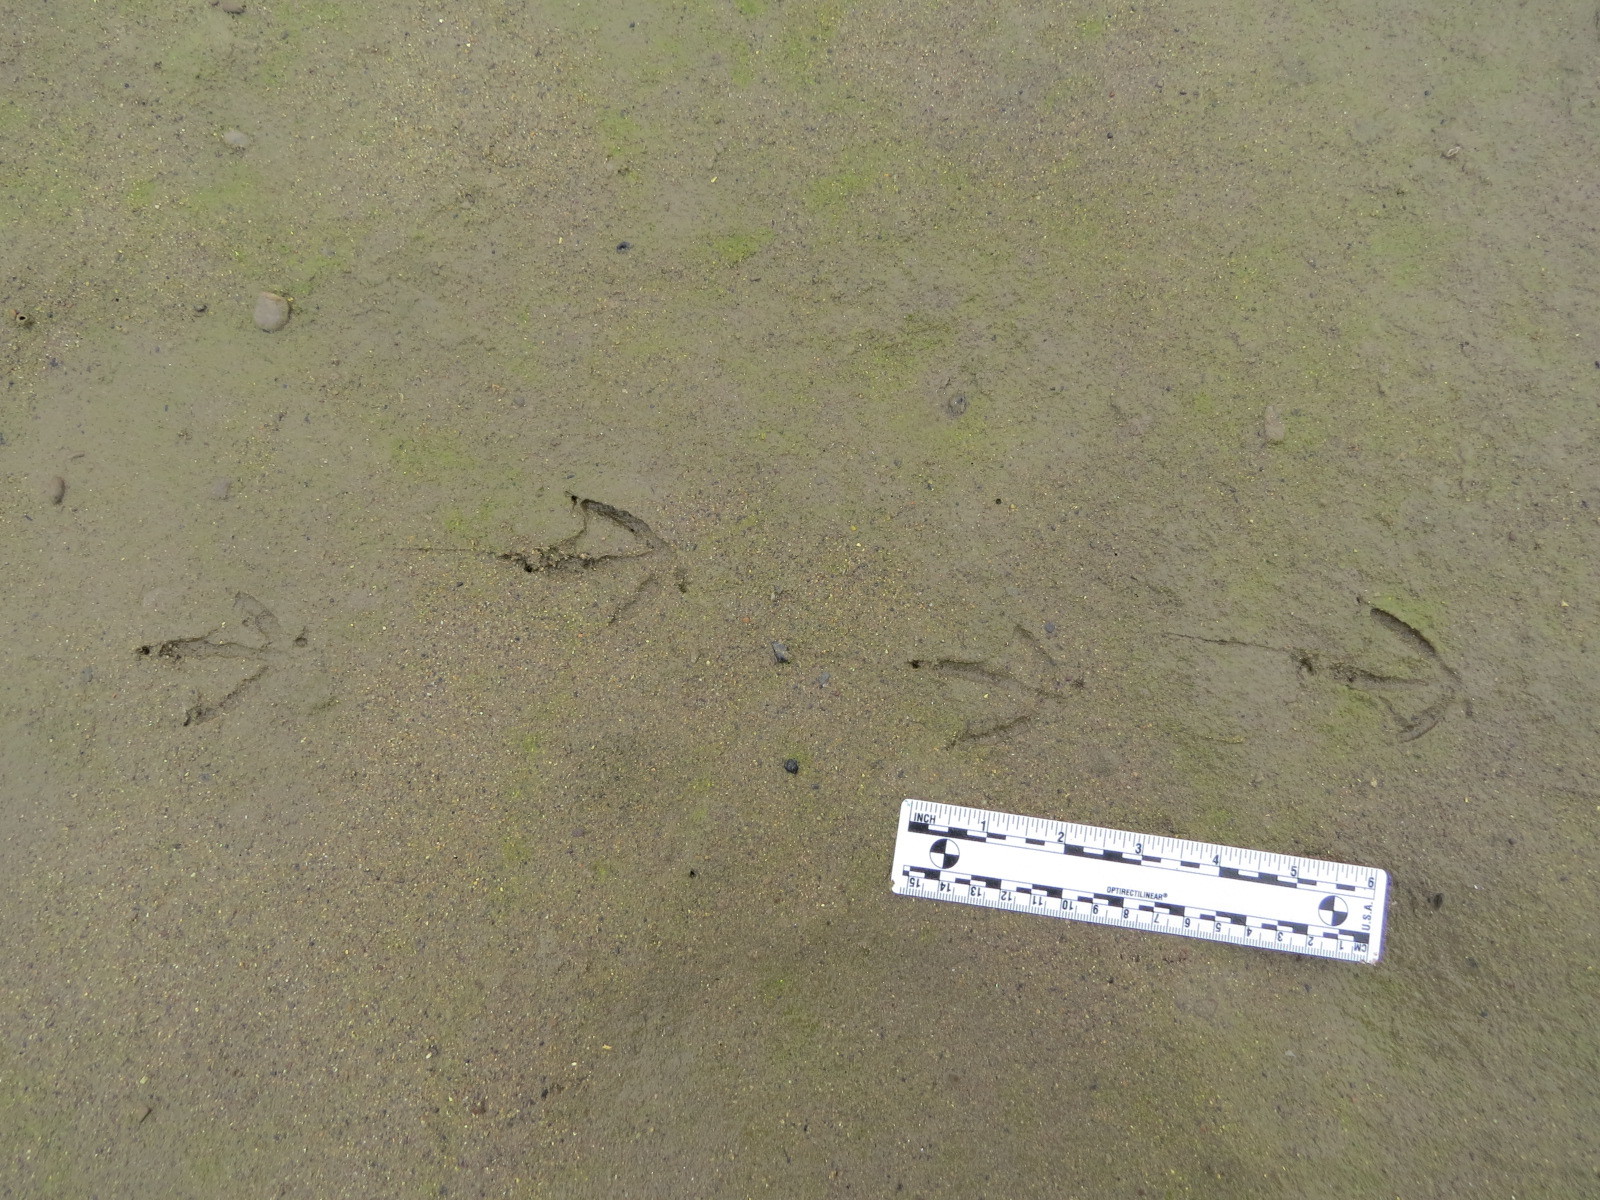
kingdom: Animalia
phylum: Chordata
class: Aves
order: Charadriiformes
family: Laridae
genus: Hydroprogne
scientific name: Hydroprogne caspia
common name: Caspian tern
